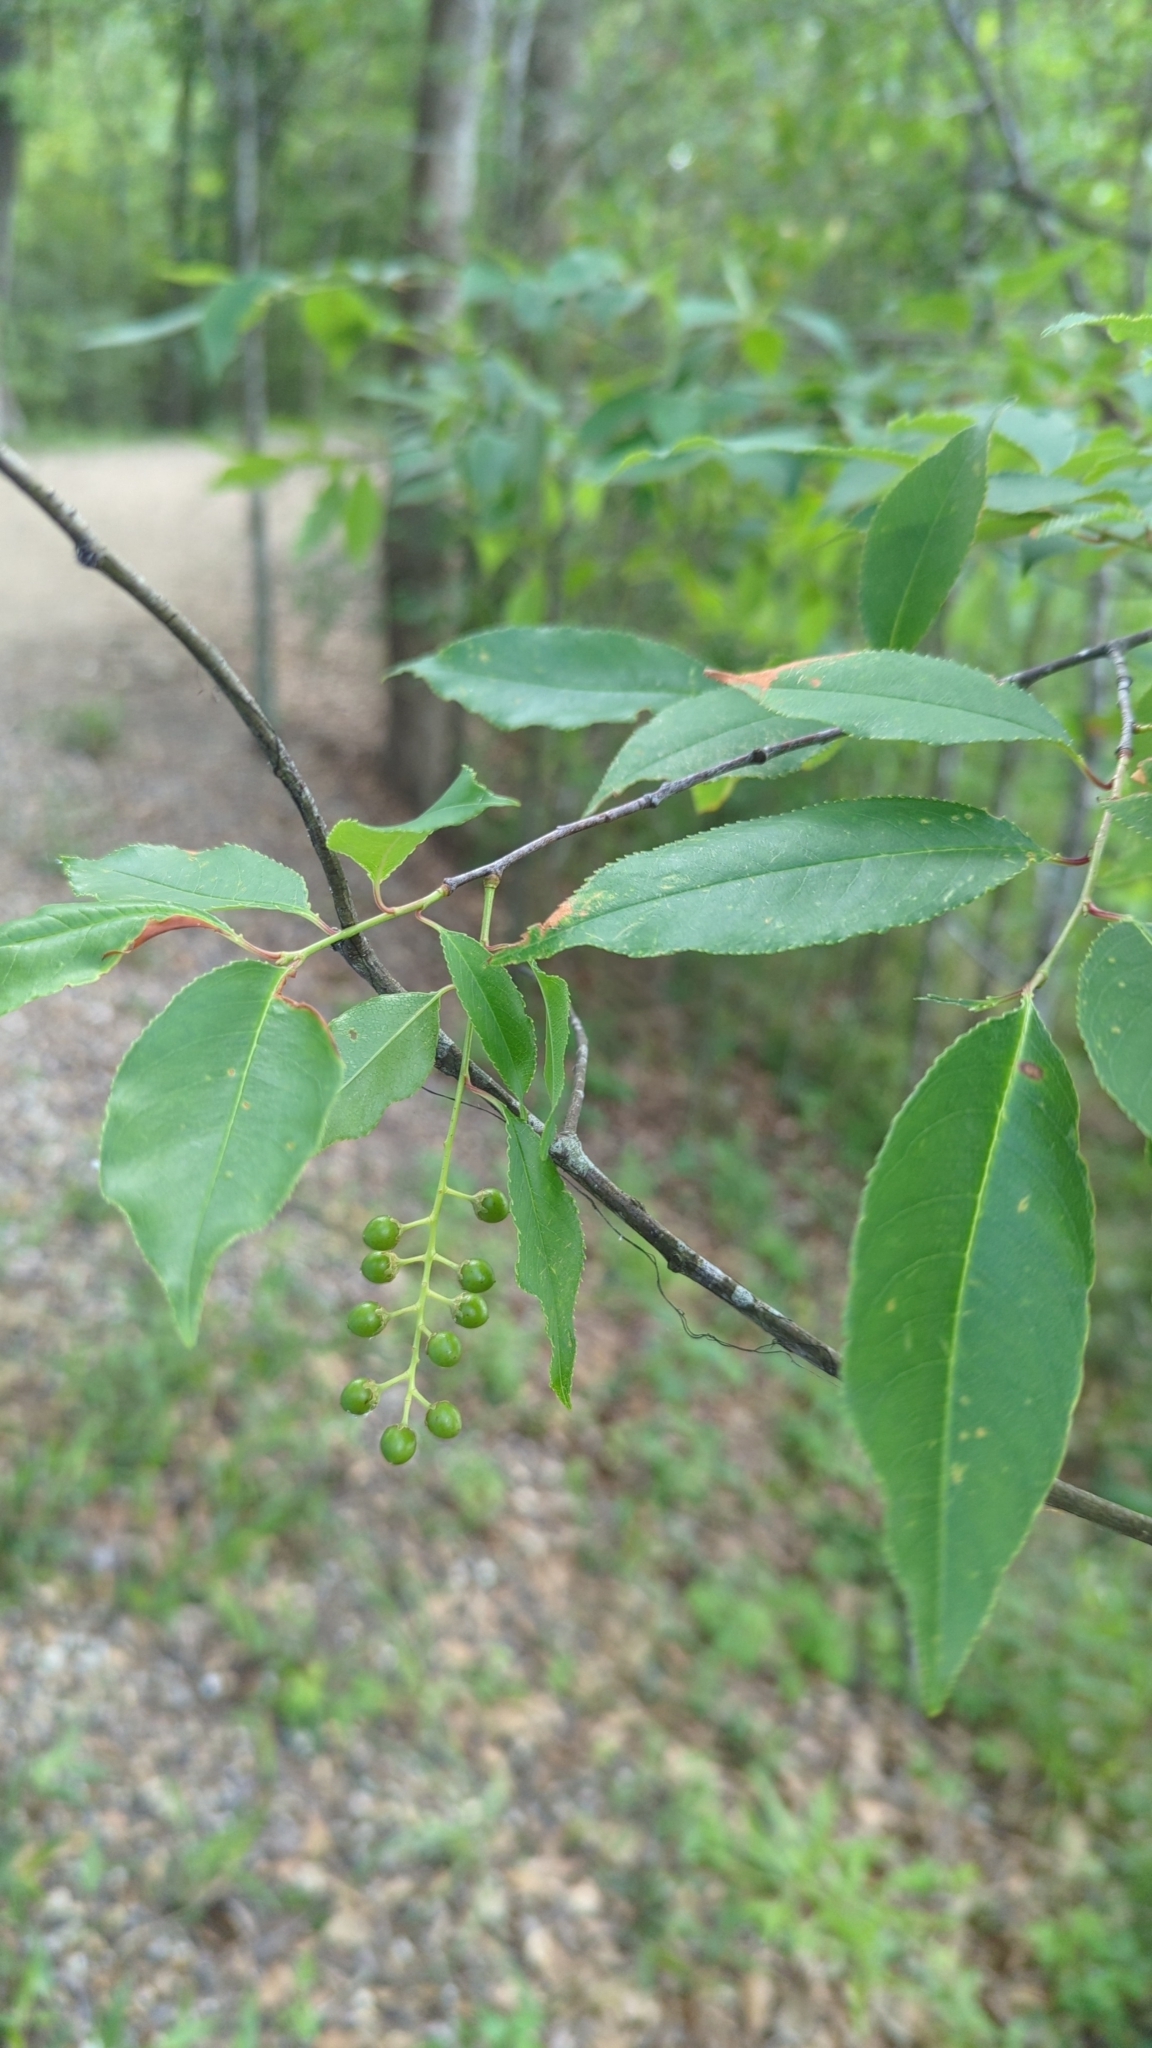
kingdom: Plantae
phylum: Tracheophyta
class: Magnoliopsida
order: Rosales
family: Rosaceae
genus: Prunus
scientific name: Prunus serotina
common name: Black cherry
